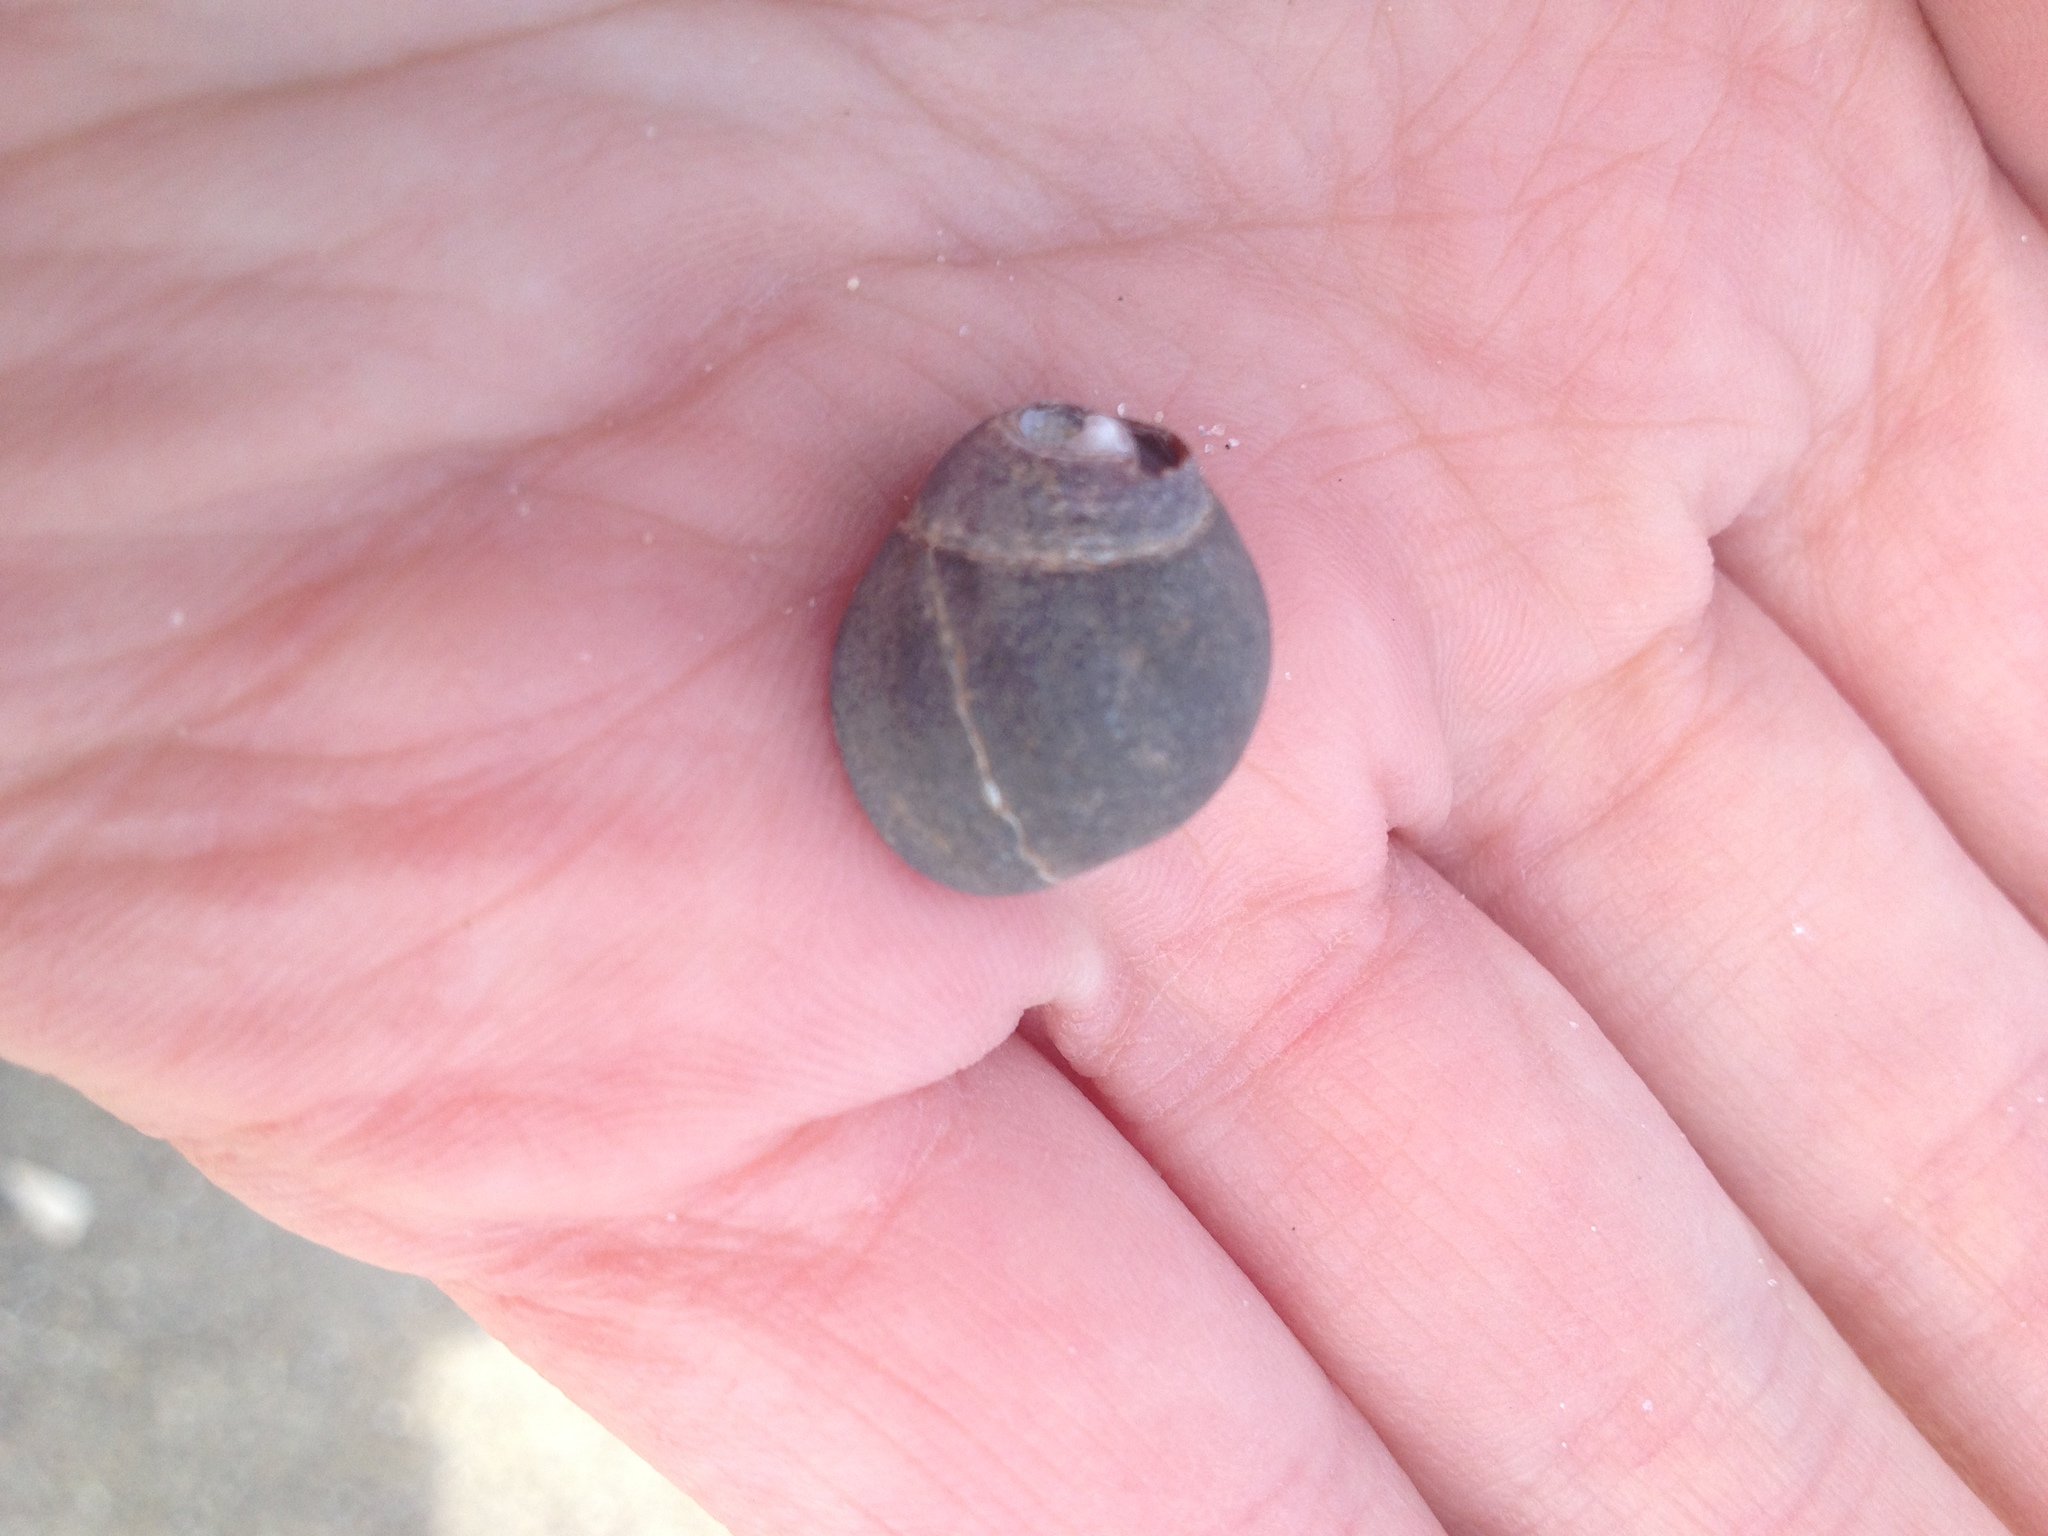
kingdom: Animalia
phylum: Mollusca
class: Gastropoda
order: Littorinimorpha
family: Littorinidae
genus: Littorina
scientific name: Littorina littorea
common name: Common periwinkle
